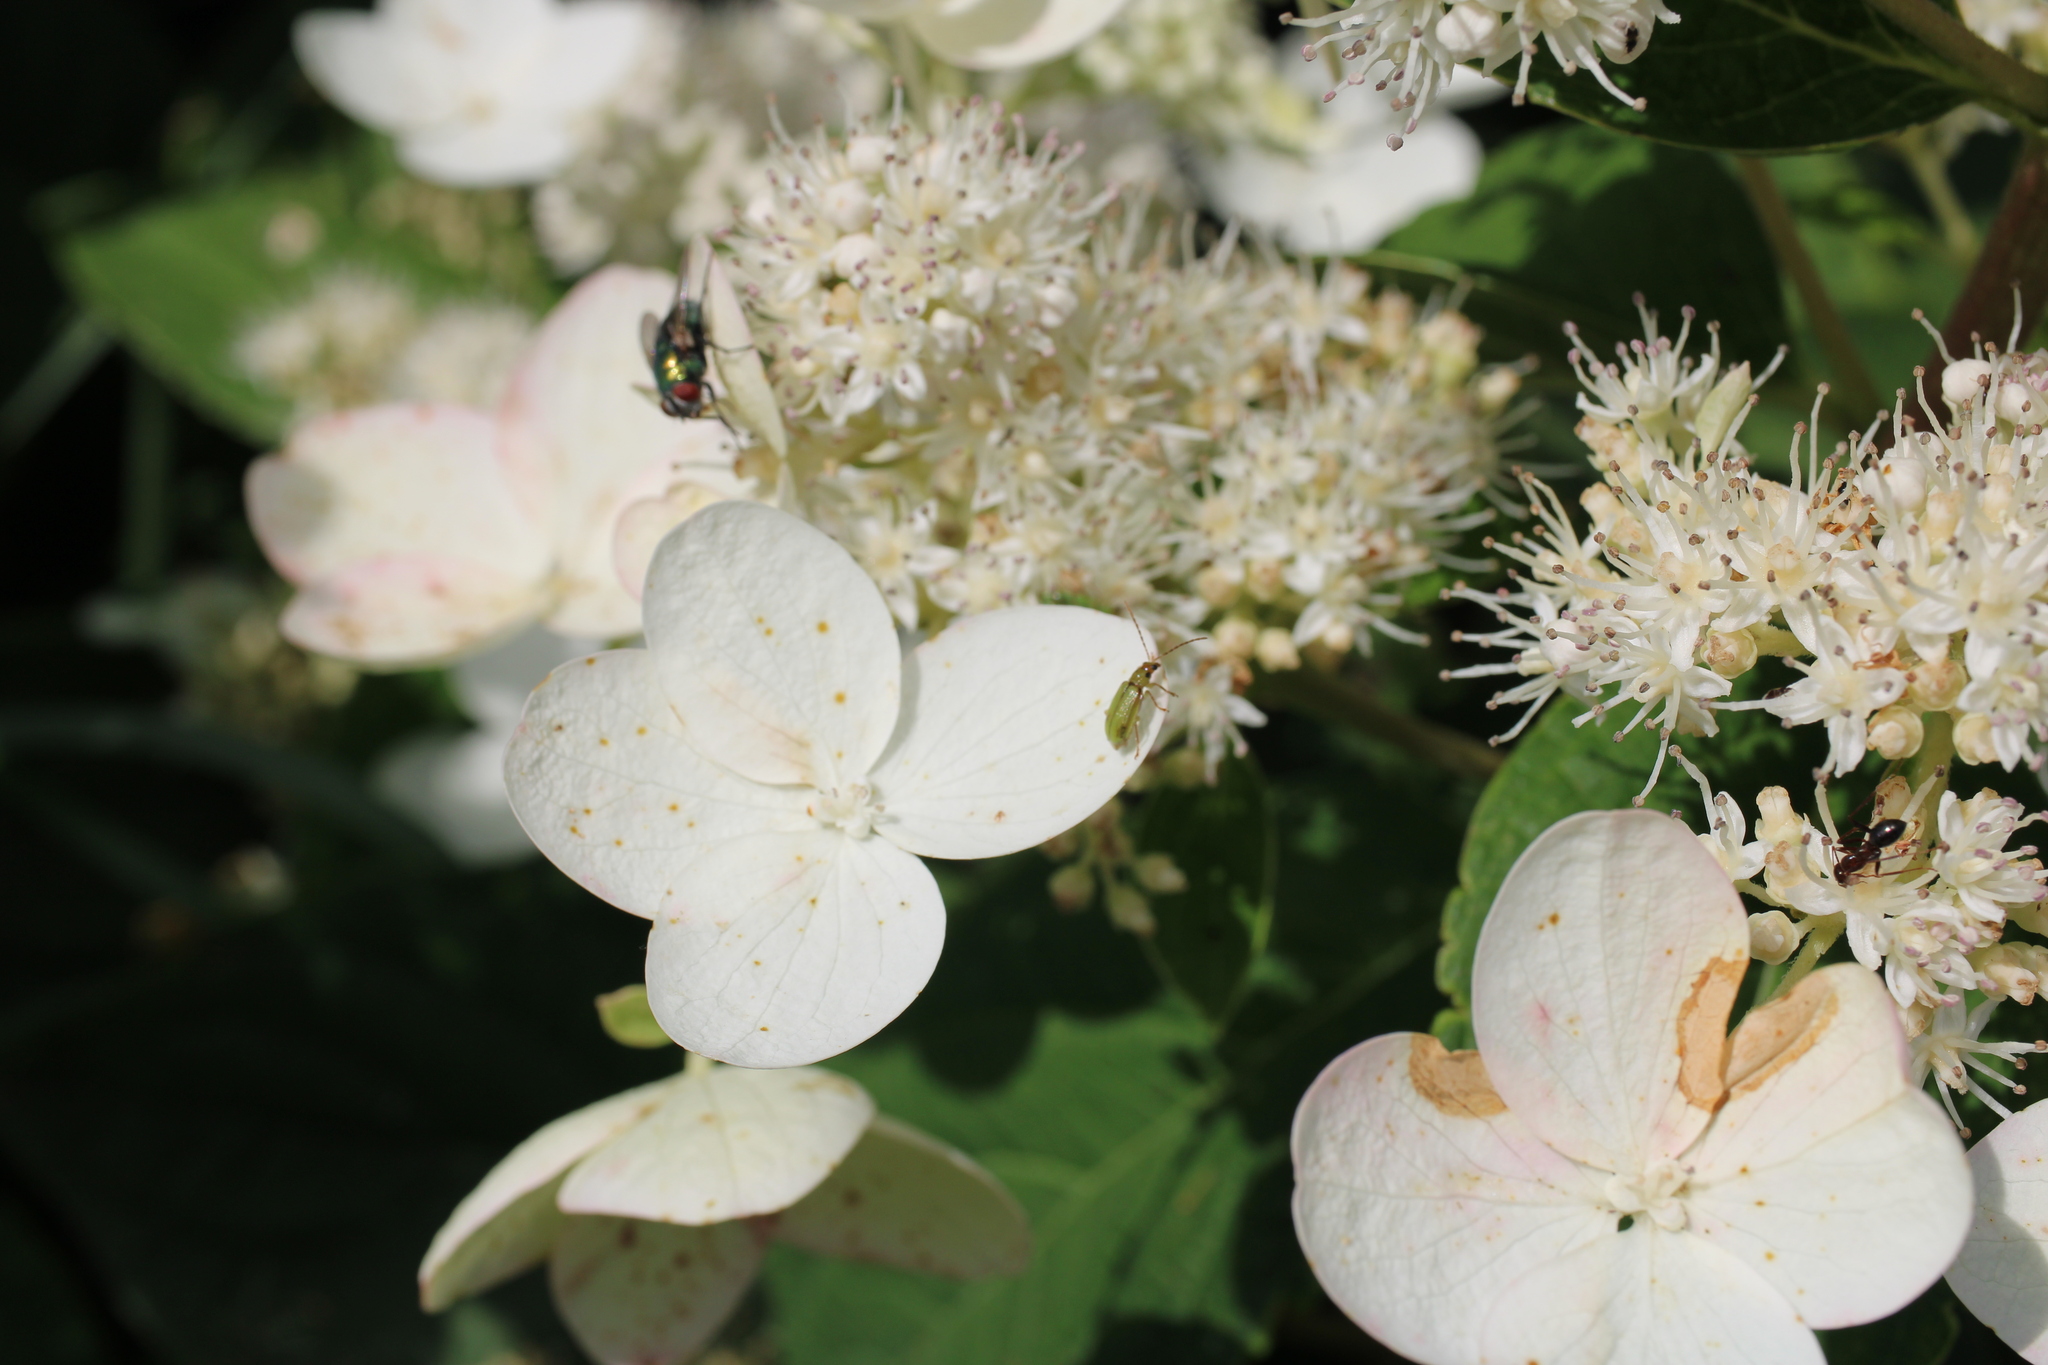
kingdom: Animalia
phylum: Arthropoda
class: Insecta
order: Coleoptera
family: Chrysomelidae
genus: Diabrotica
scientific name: Diabrotica barberi
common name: Northern corn rootworm
